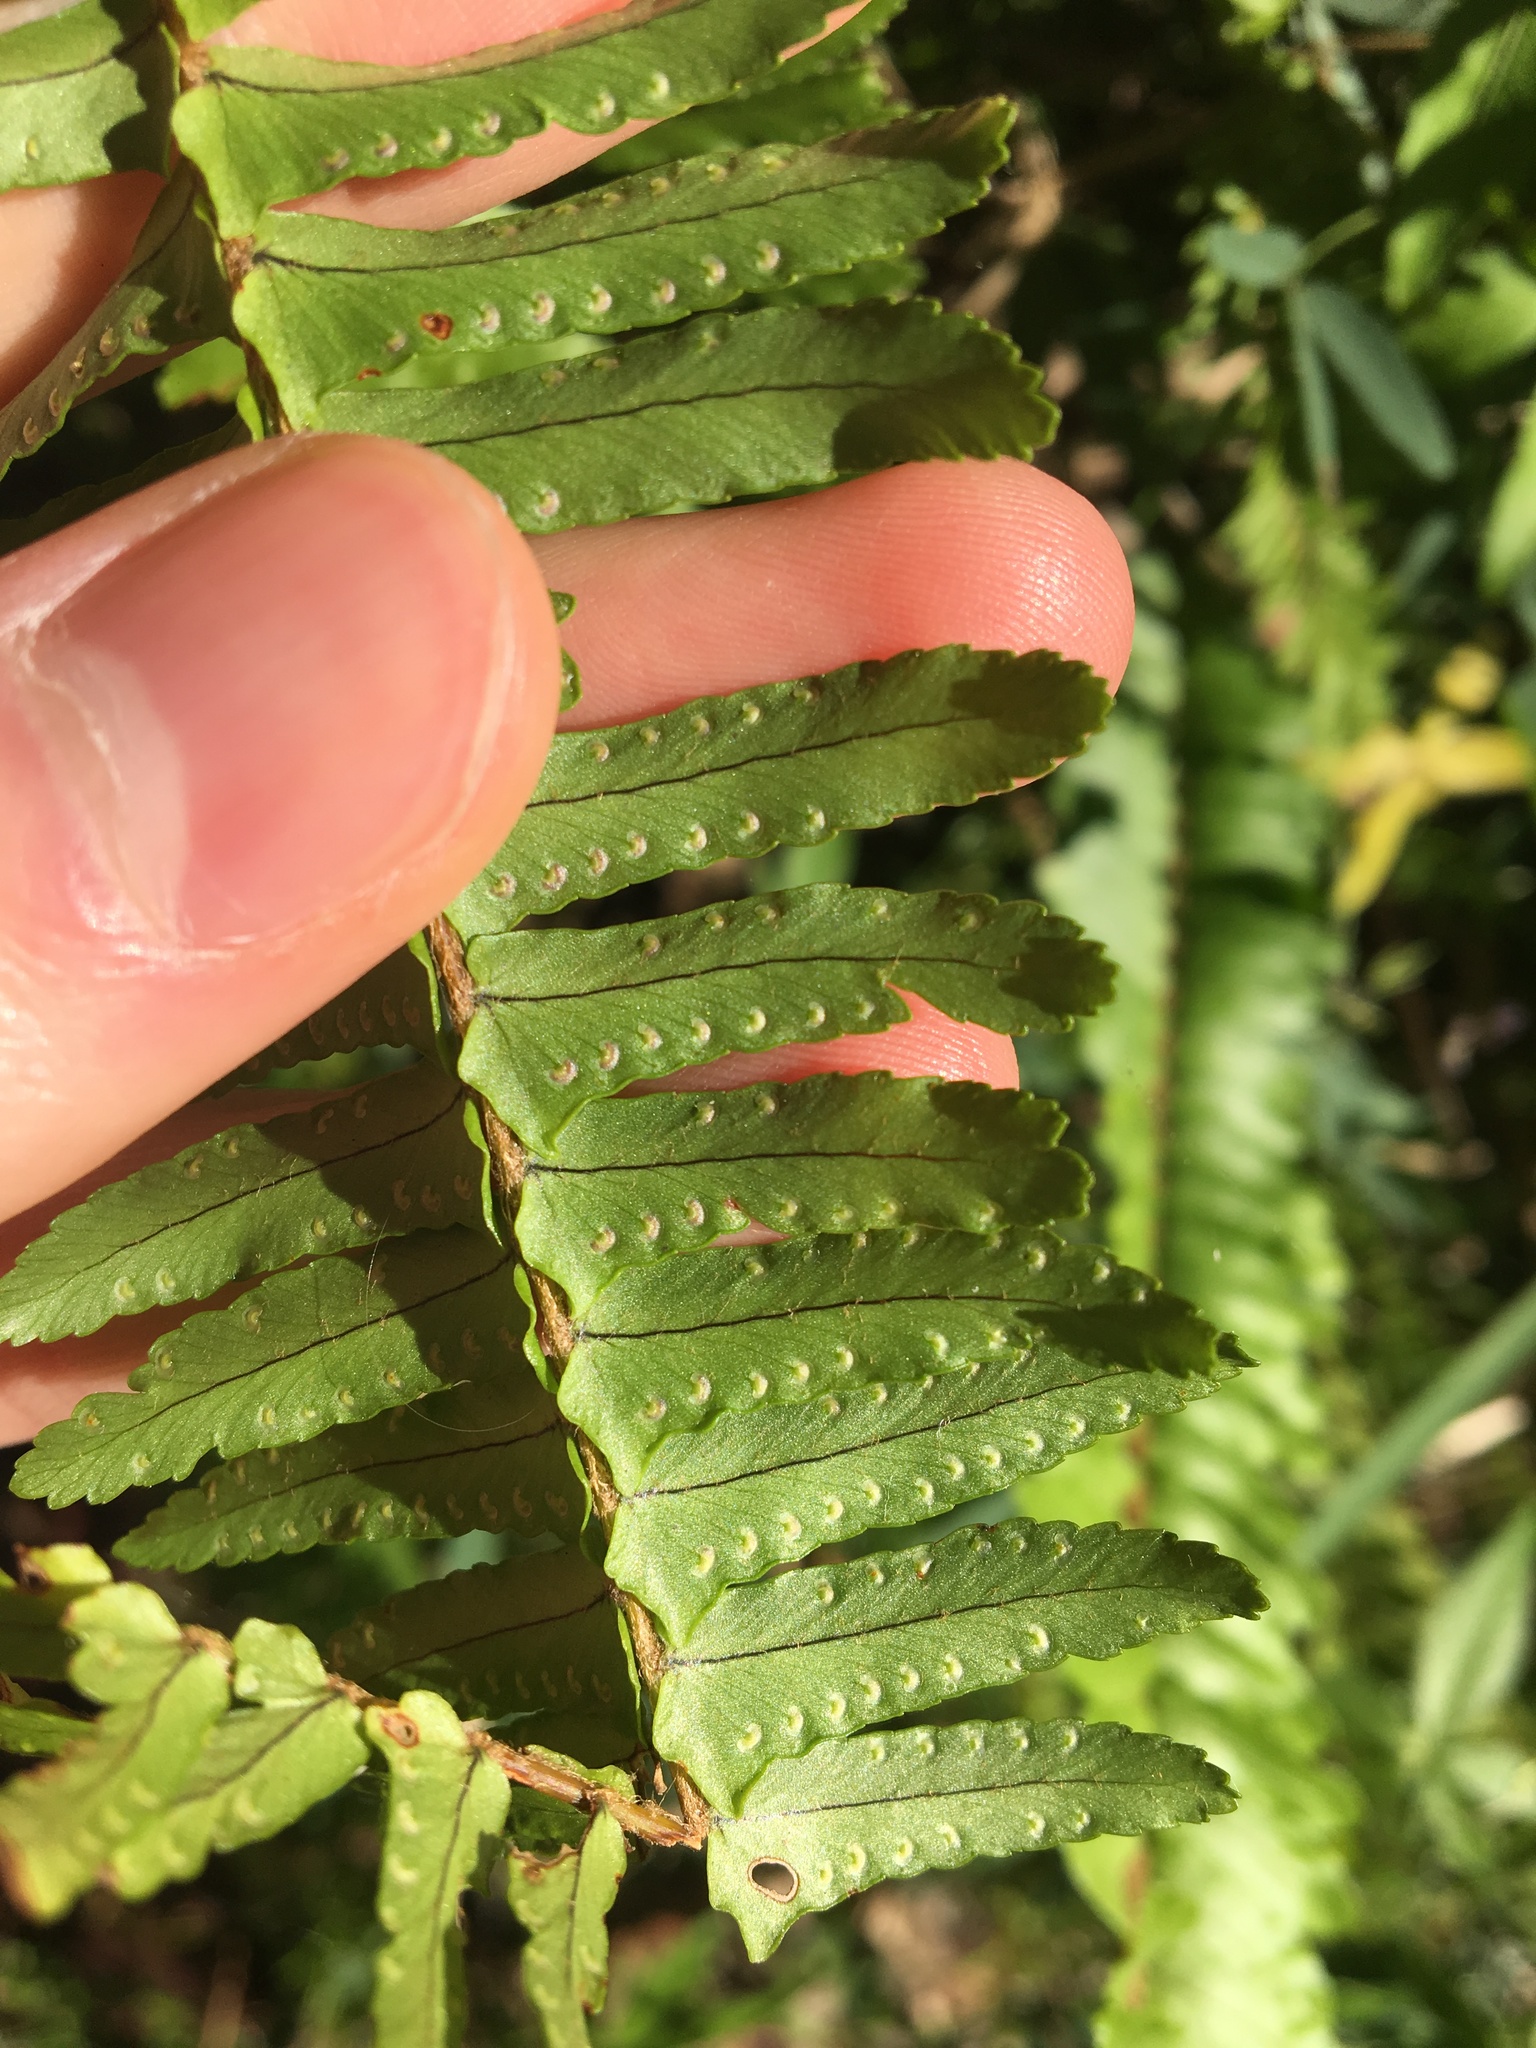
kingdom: Plantae
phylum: Tracheophyta
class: Polypodiopsida
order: Polypodiales
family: Nephrolepidaceae
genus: Nephrolepis
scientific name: Nephrolepis cordifolia
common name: Narrow swordfern
